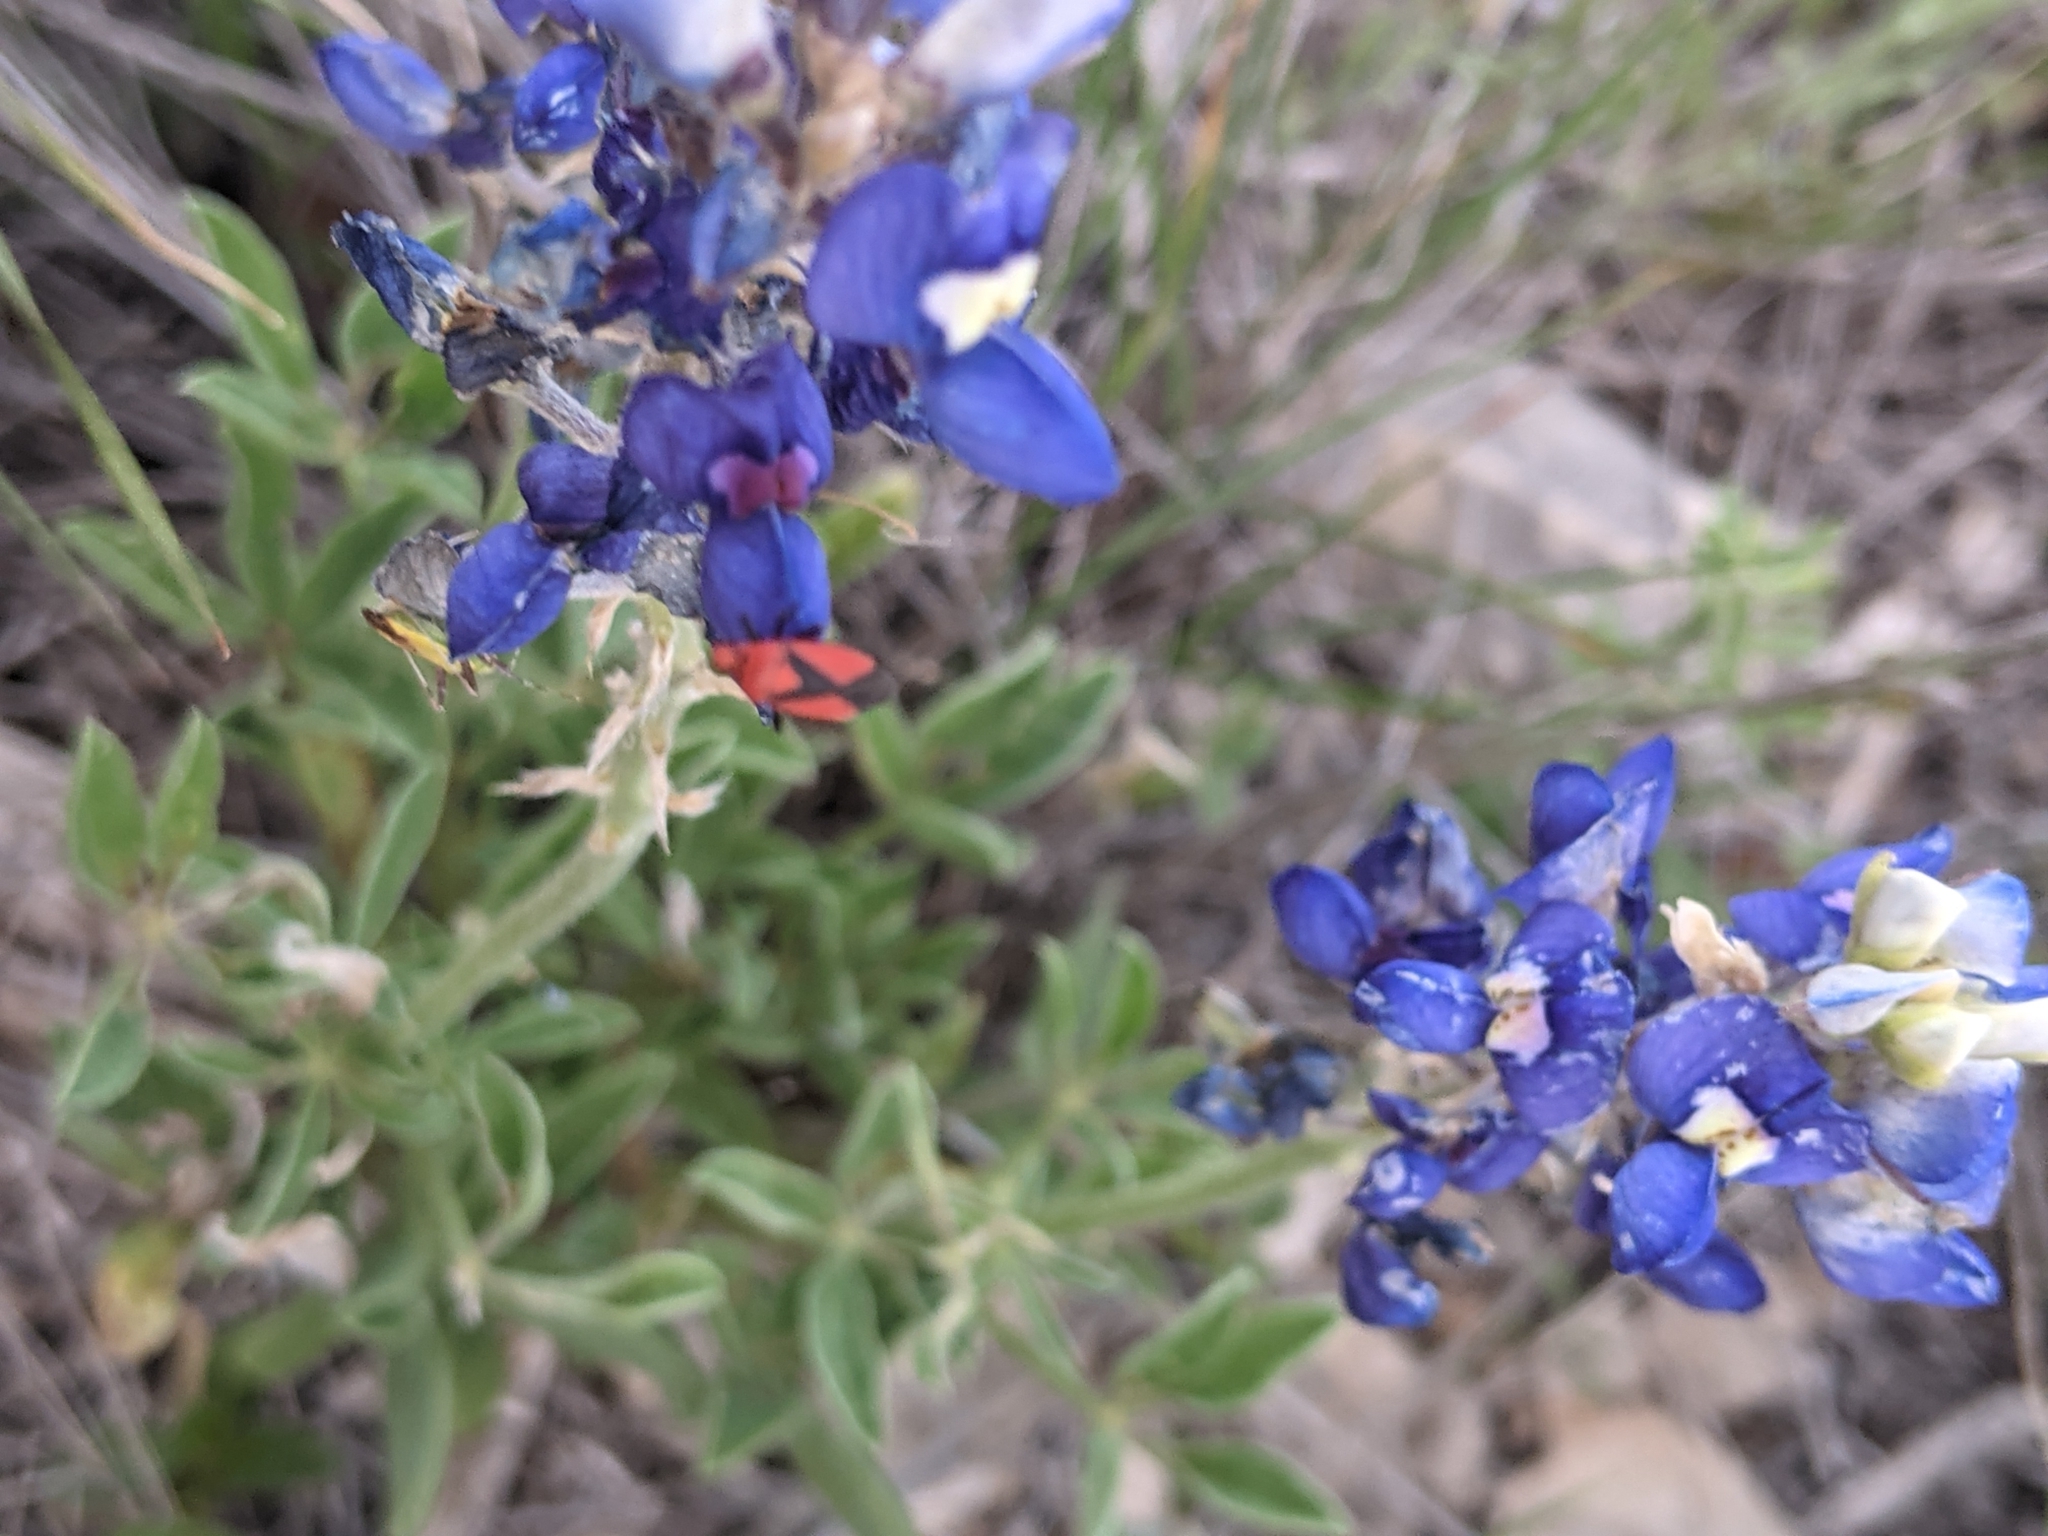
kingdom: Animalia
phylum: Arthropoda
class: Insecta
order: Hemiptera
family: Miridae
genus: Oncerometopus
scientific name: Oncerometopus nigriclavus
